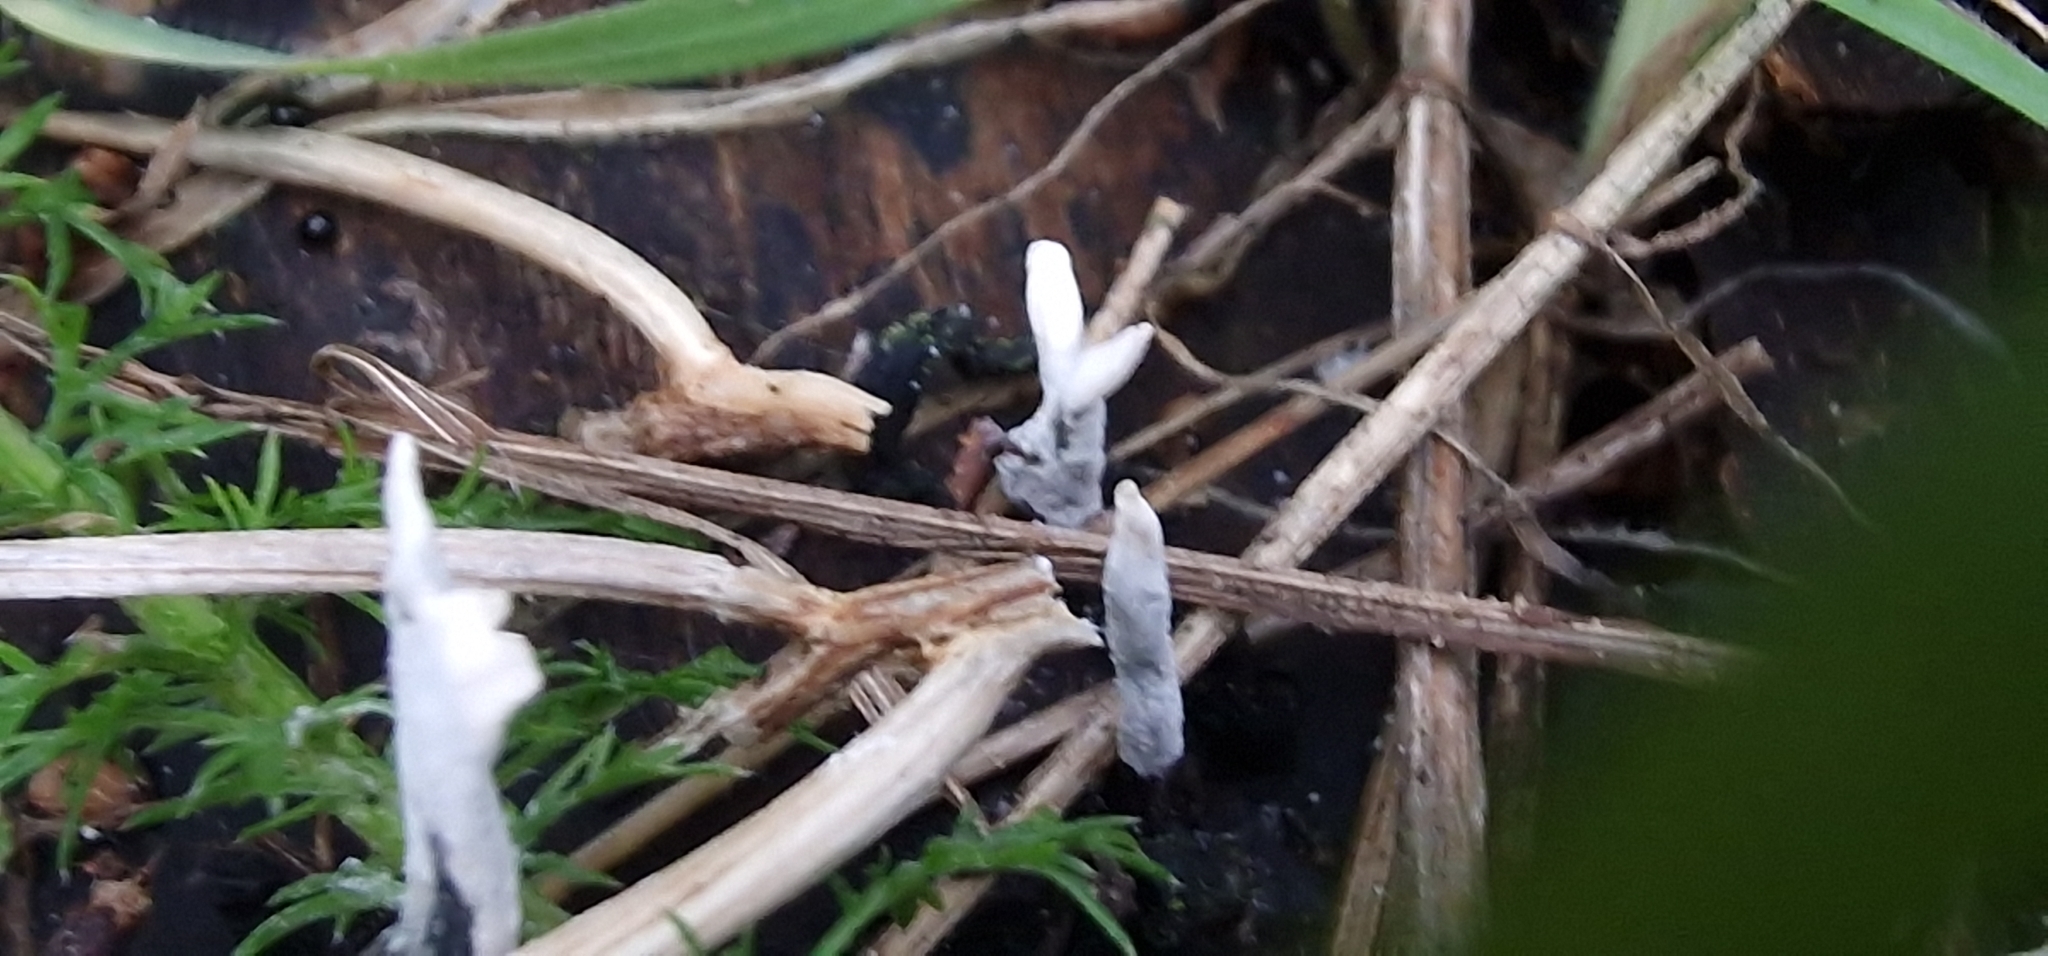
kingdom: Fungi
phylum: Ascomycota
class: Sordariomycetes
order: Xylariales
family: Xylariaceae
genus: Xylaria
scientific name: Xylaria hypoxylon
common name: Candle-snuff fungus
